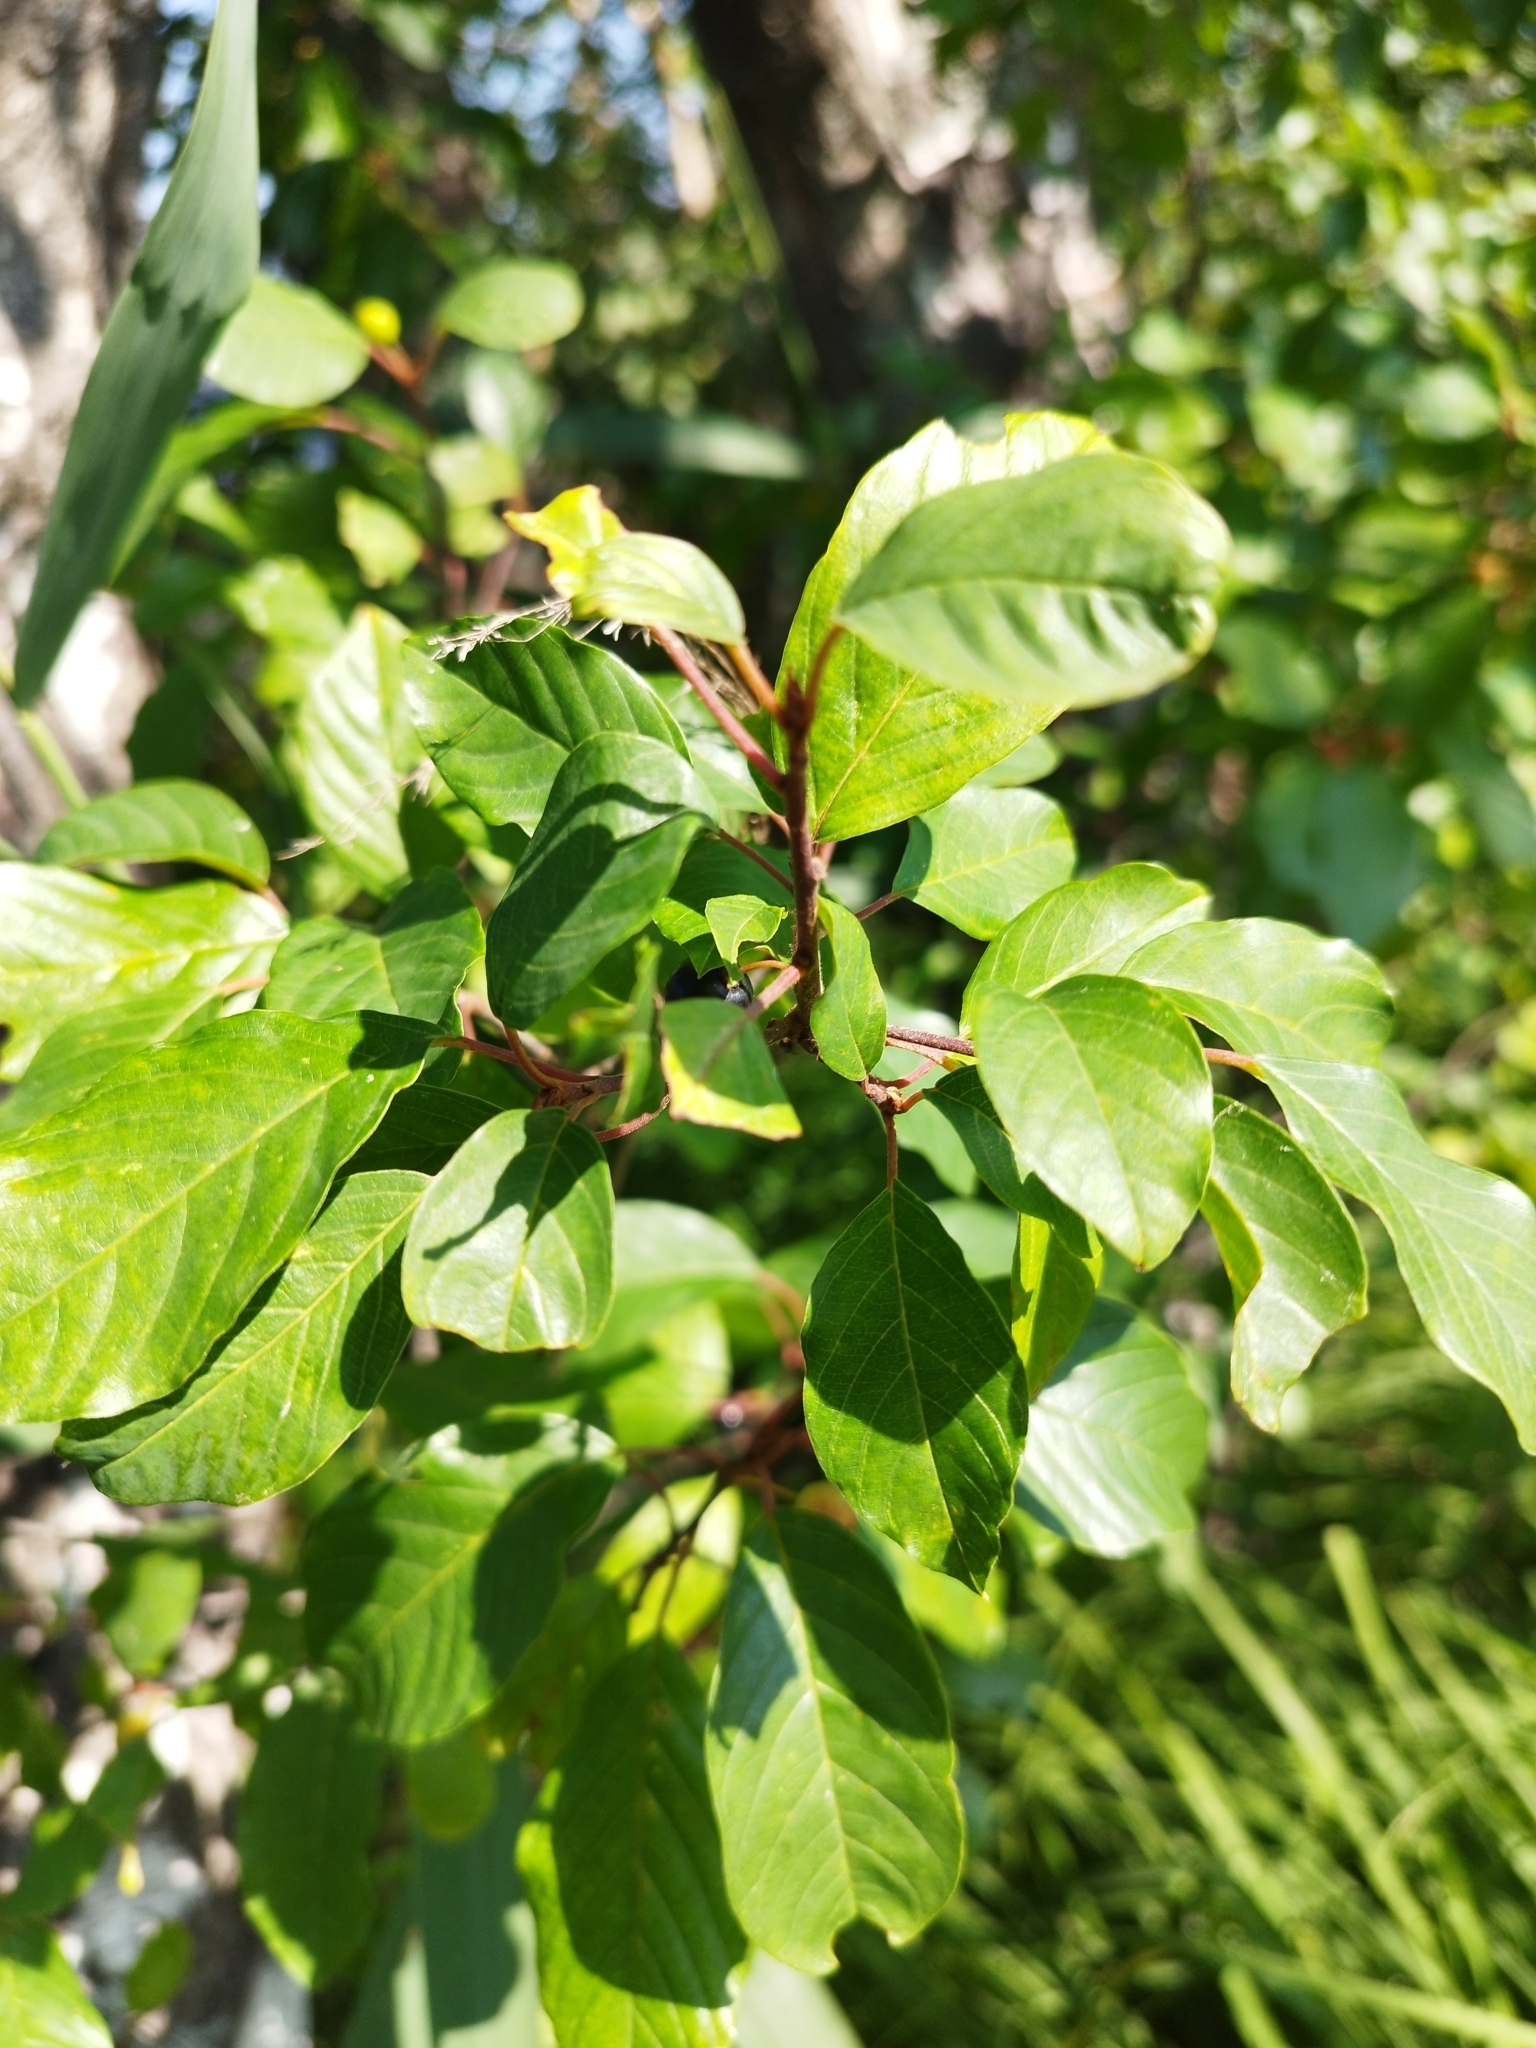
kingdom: Plantae
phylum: Tracheophyta
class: Magnoliopsida
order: Rosales
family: Rhamnaceae
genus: Frangula
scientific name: Frangula alnus
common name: Alder buckthorn
